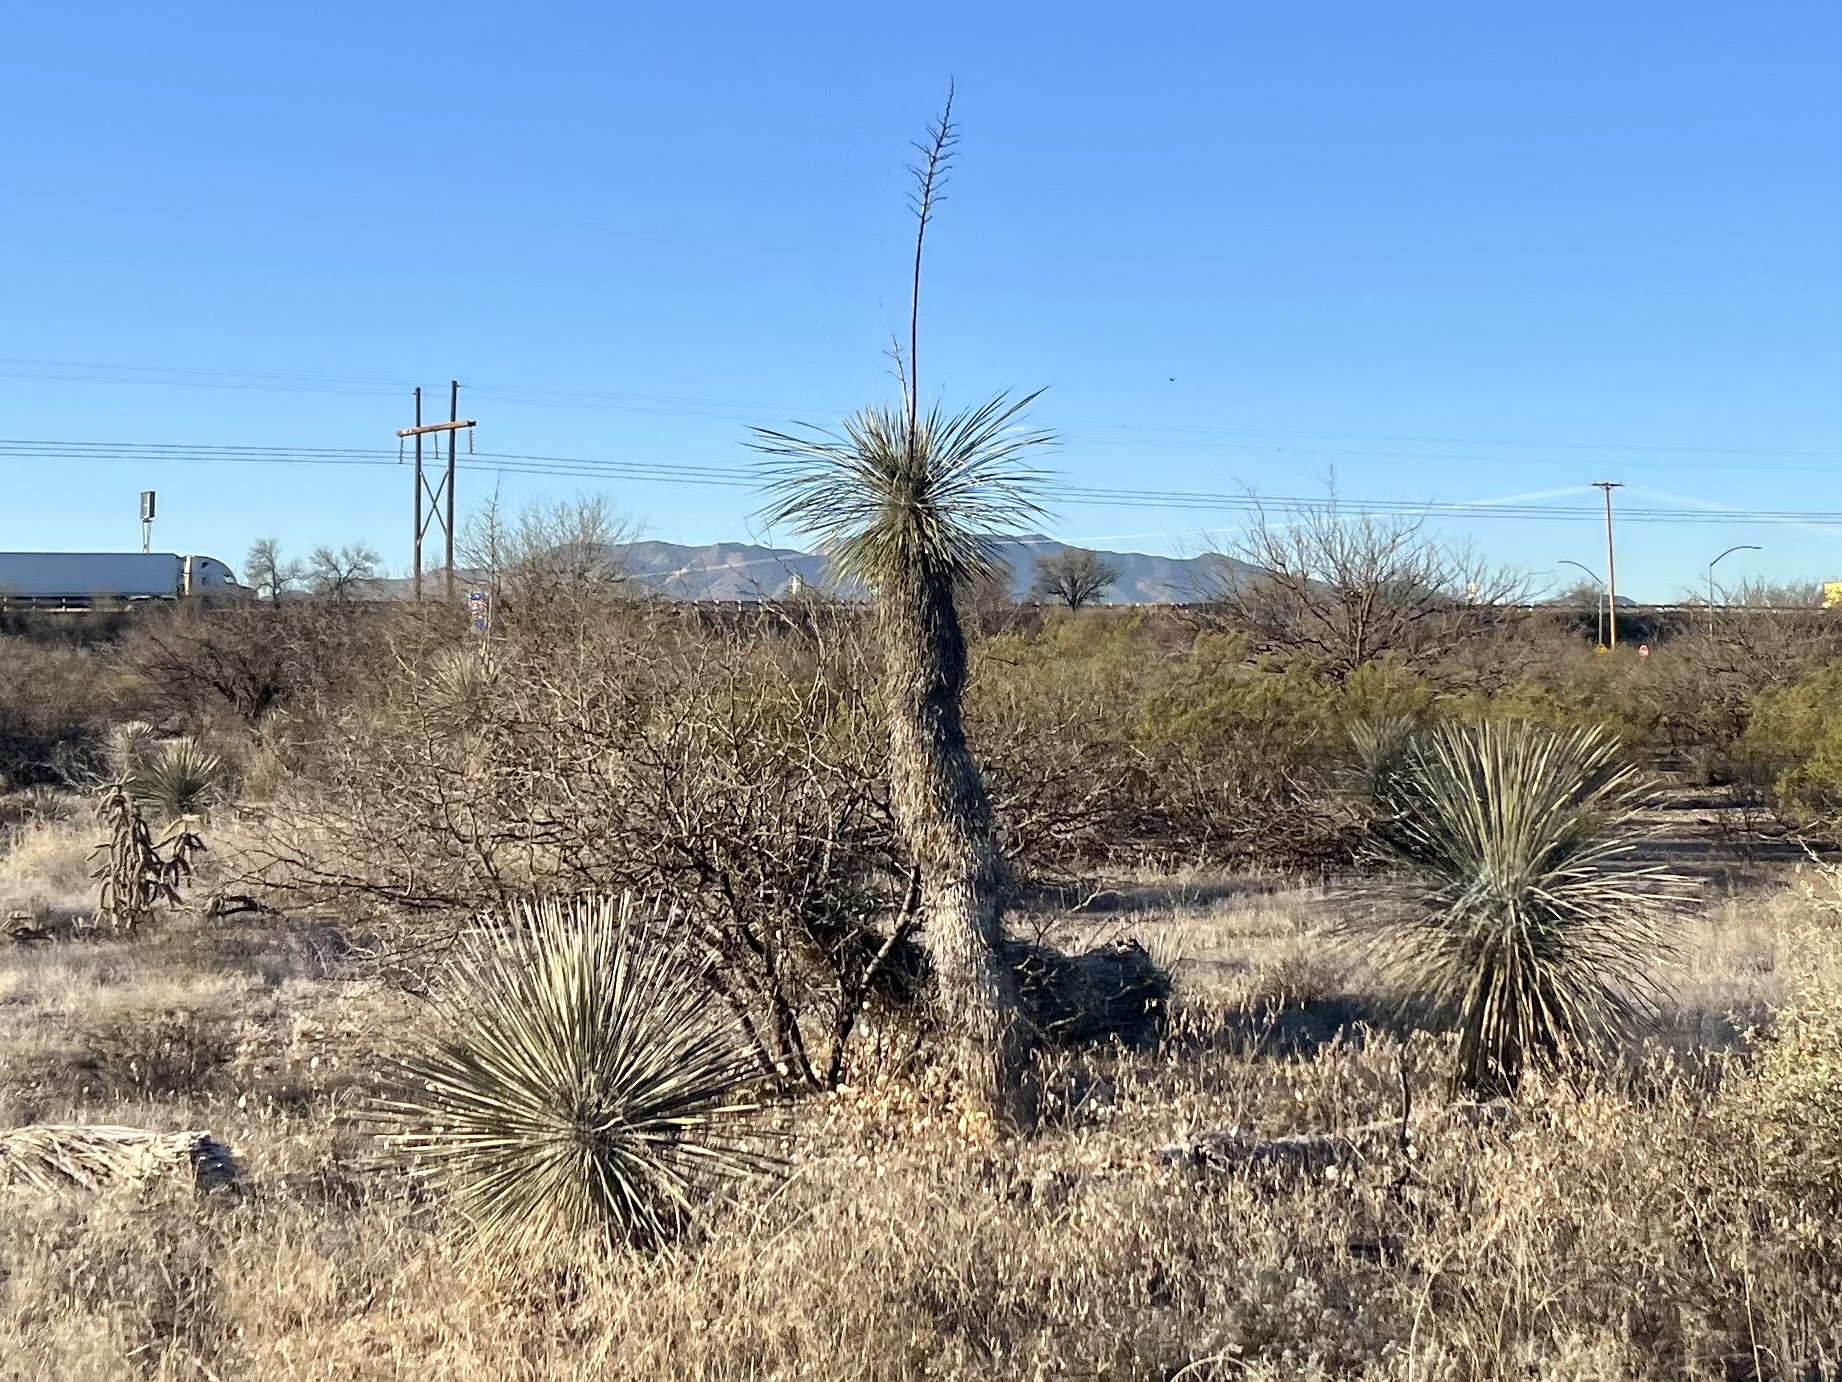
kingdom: Plantae
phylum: Tracheophyta
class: Liliopsida
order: Asparagales
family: Asparagaceae
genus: Yucca
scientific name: Yucca elata
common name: Palmella
